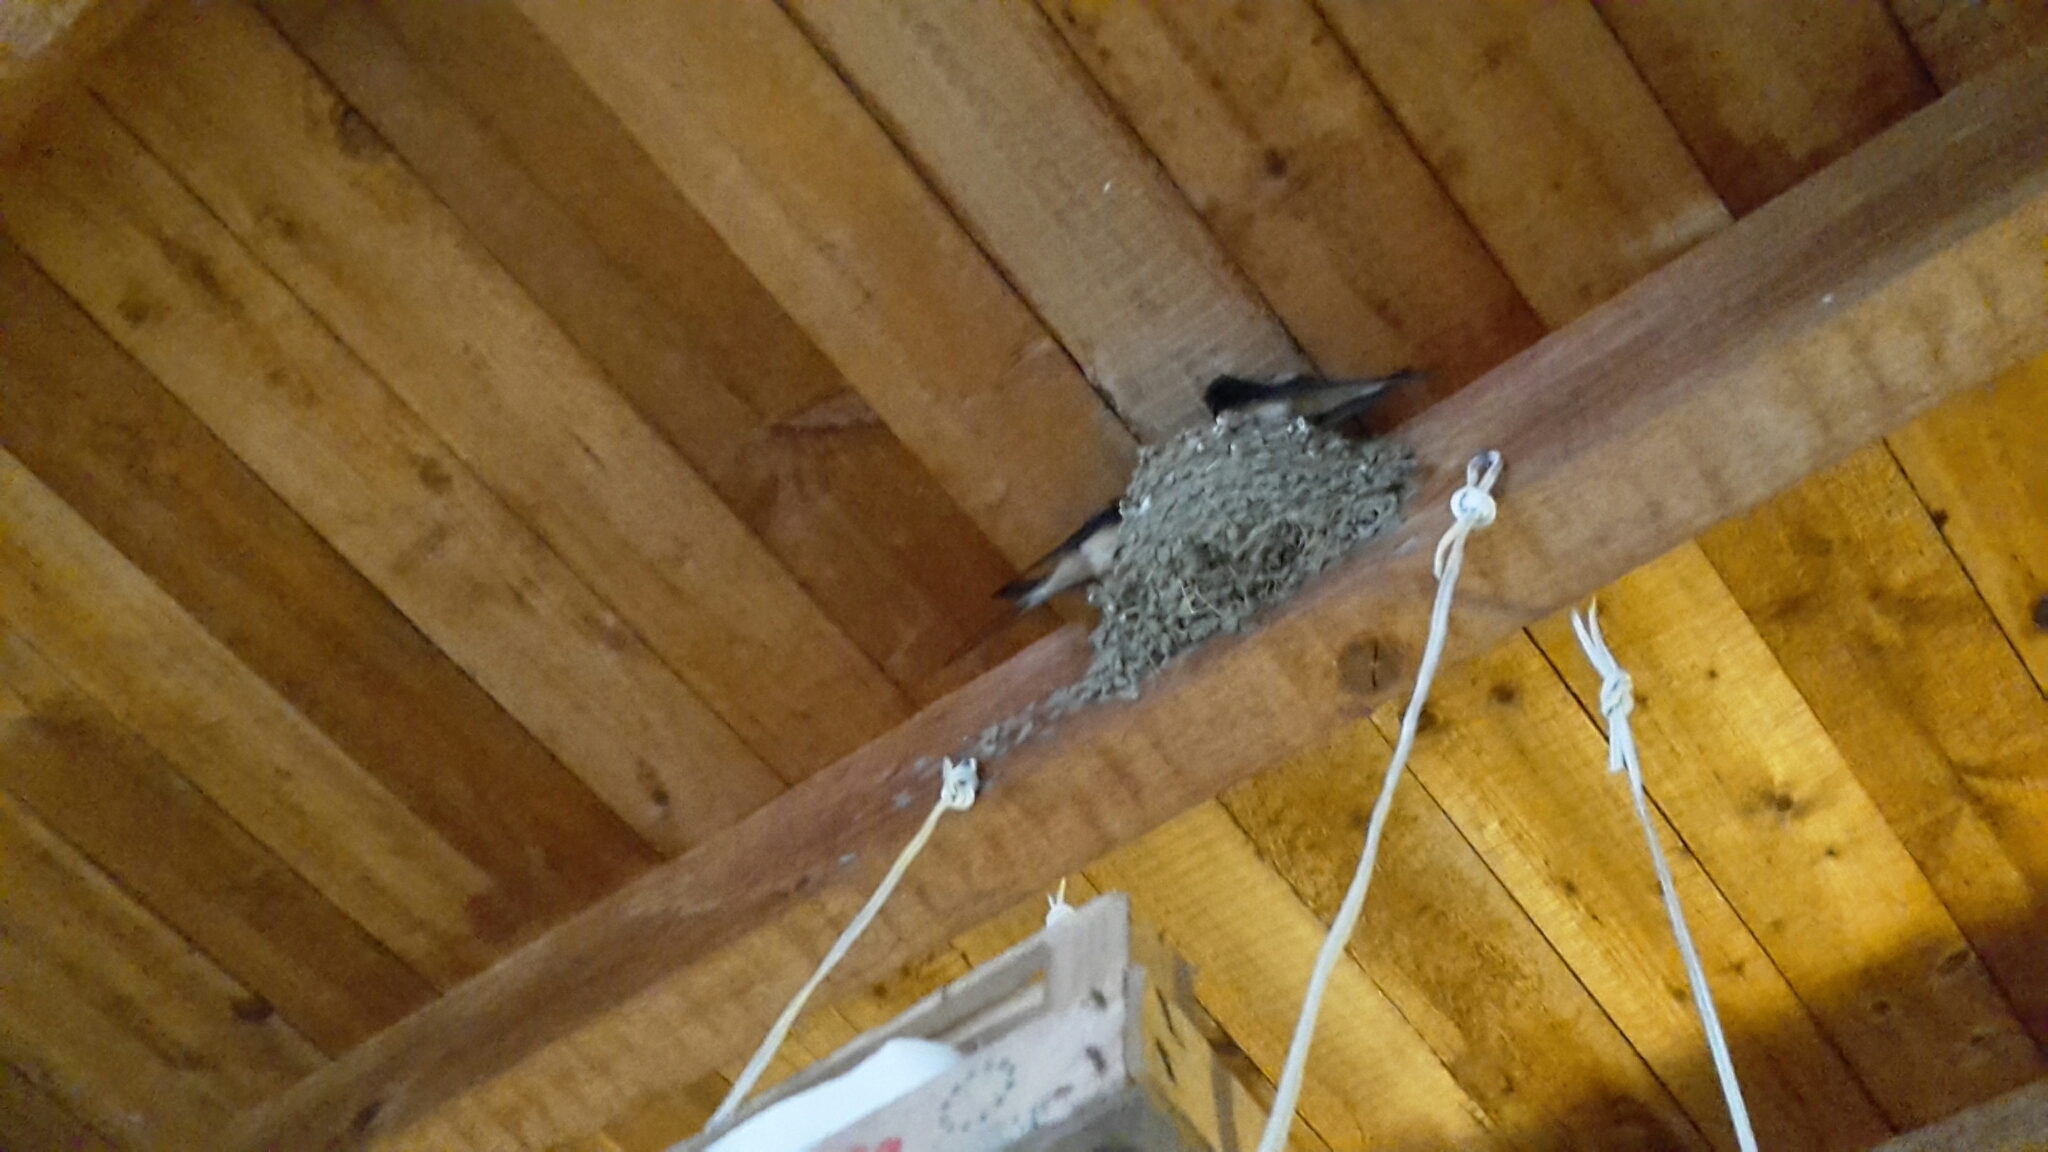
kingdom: Animalia
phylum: Chordata
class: Aves
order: Passeriformes
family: Hirundinidae
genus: Hirundo
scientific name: Hirundo rustica
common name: Barn swallow
